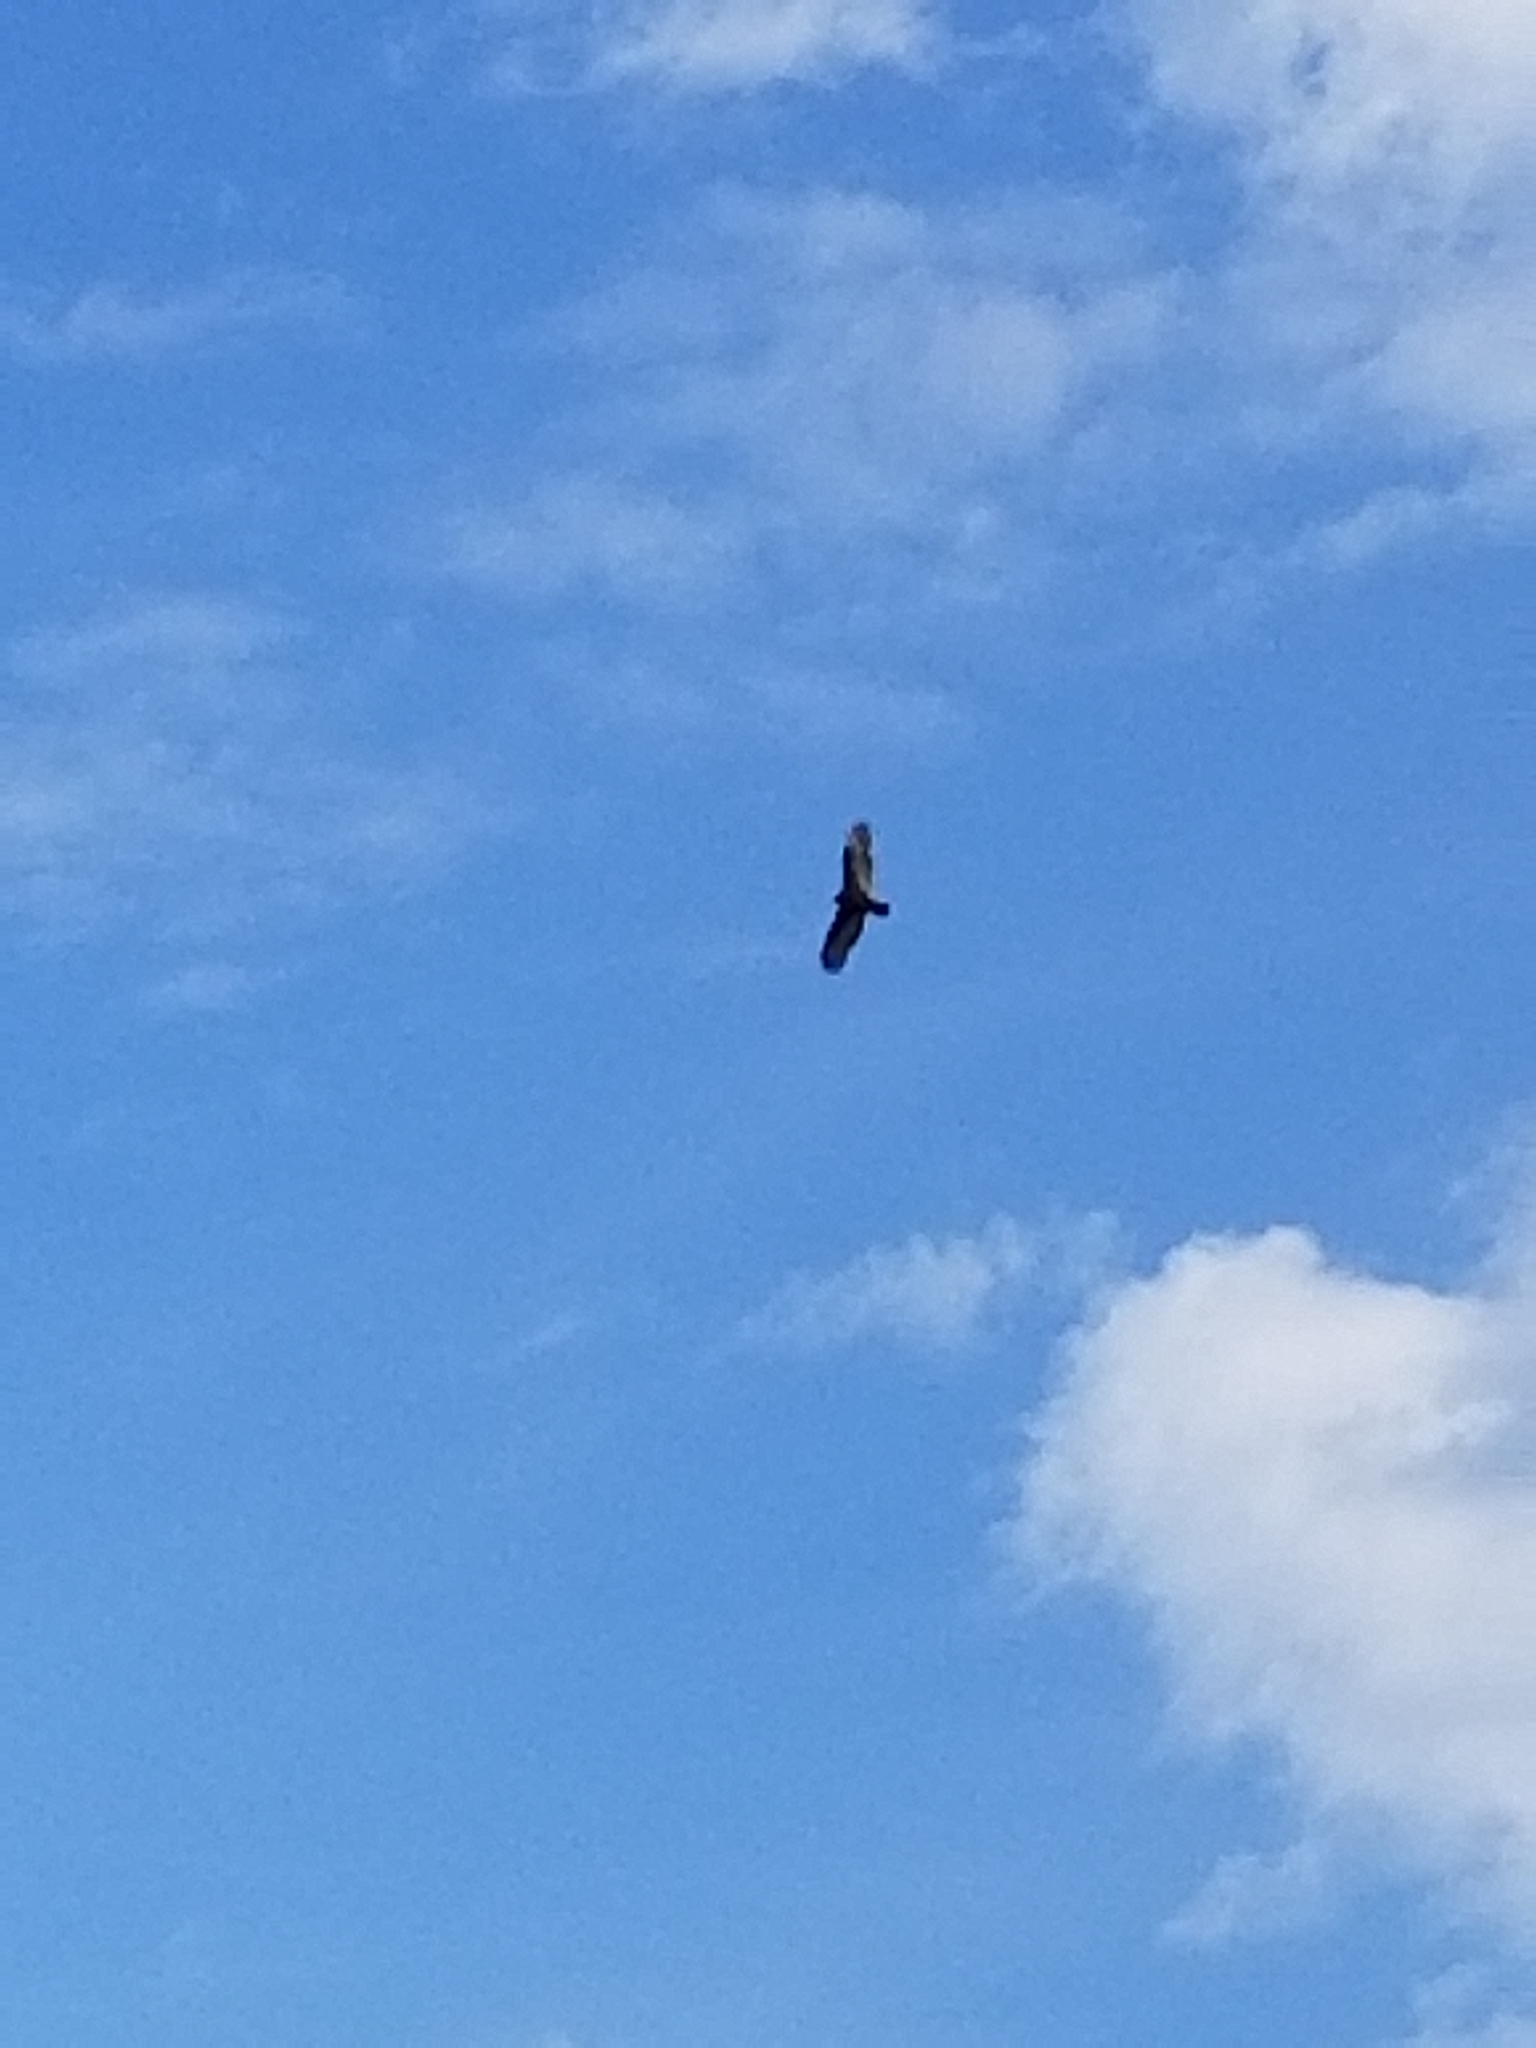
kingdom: Animalia
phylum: Chordata
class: Aves
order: Accipitriformes
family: Cathartidae
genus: Cathartes
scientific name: Cathartes aura
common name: Turkey vulture
